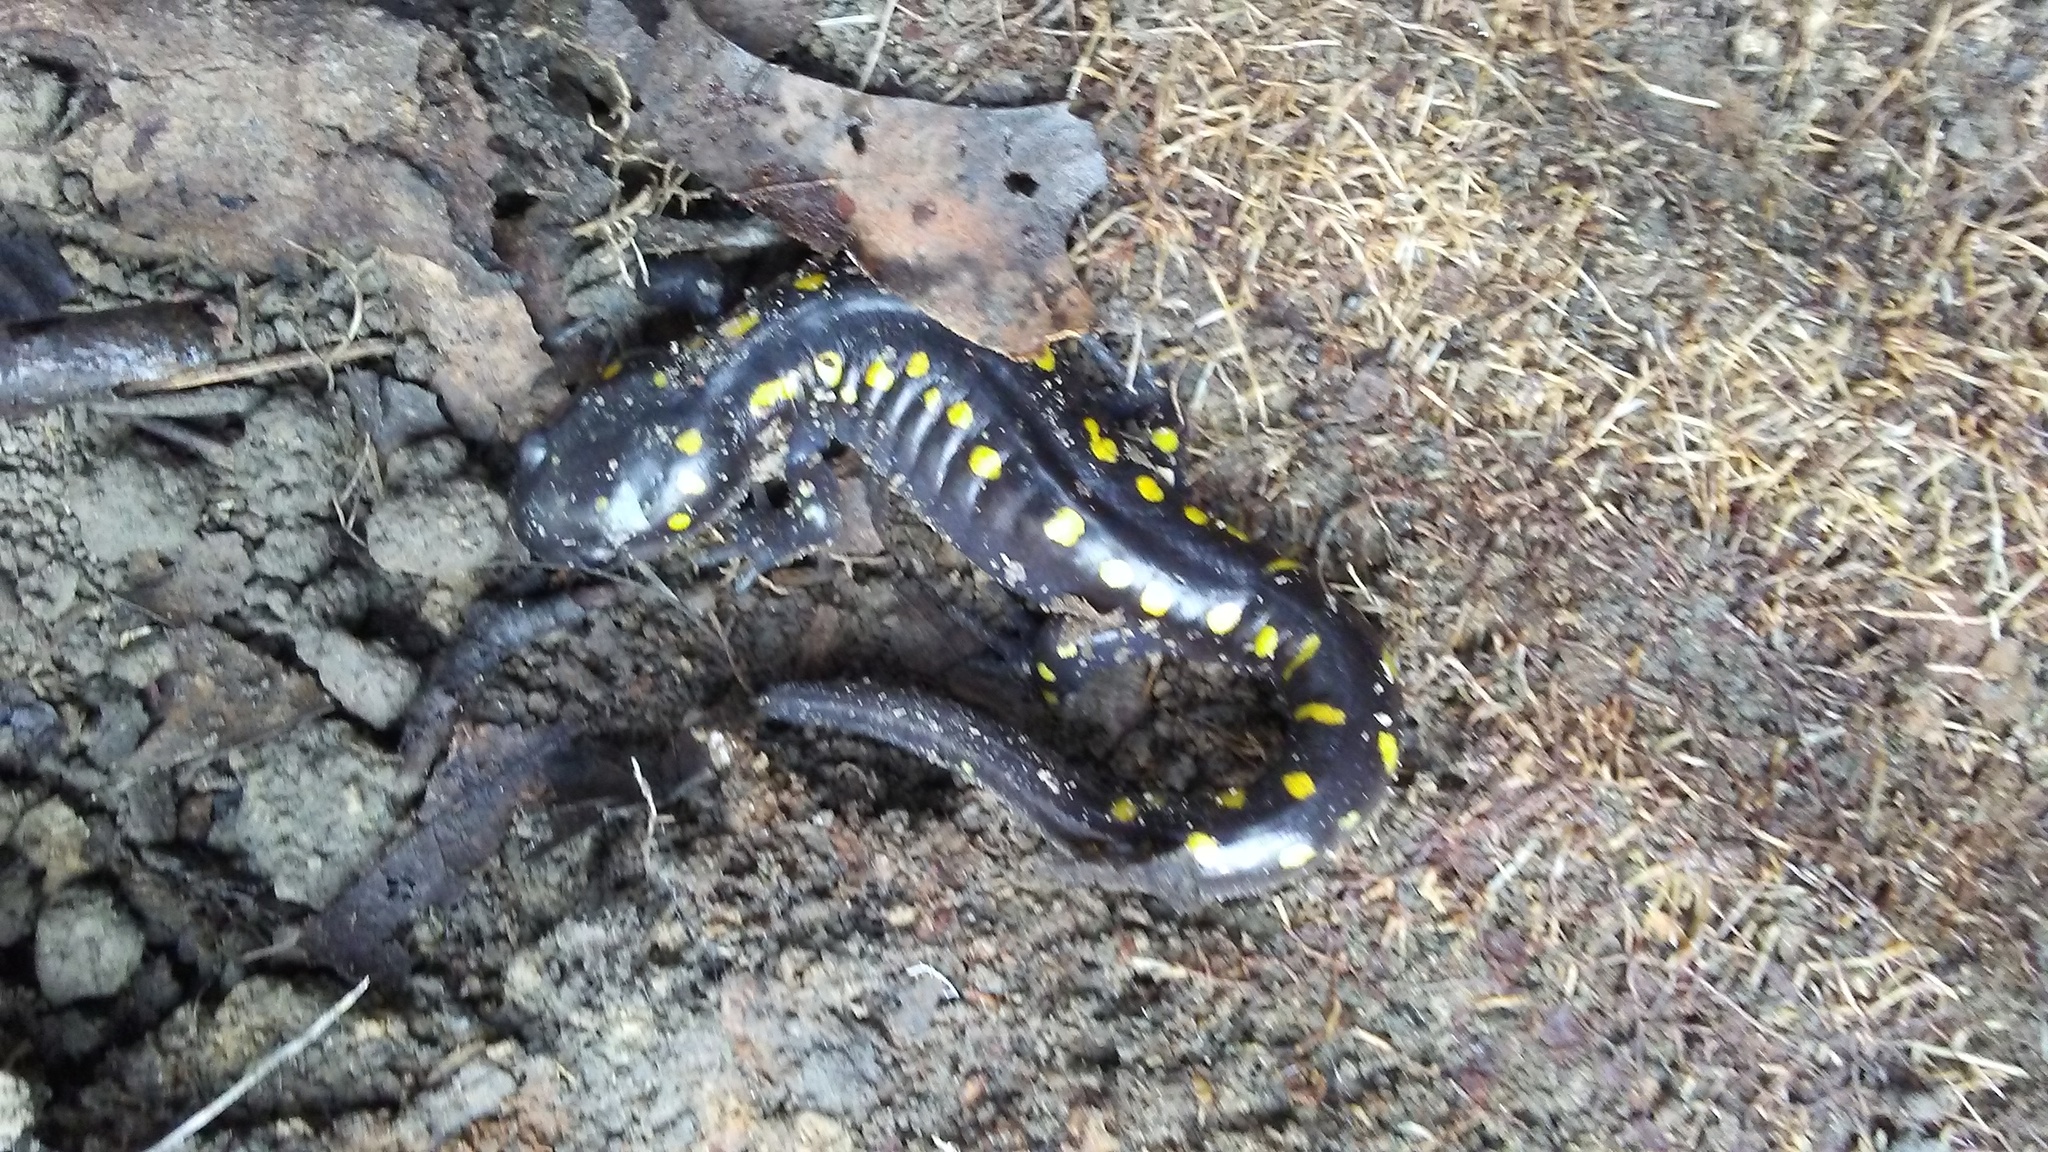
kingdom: Animalia
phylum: Chordata
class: Amphibia
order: Caudata
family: Ambystomatidae
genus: Ambystoma
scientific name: Ambystoma maculatum
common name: Spotted salamander
